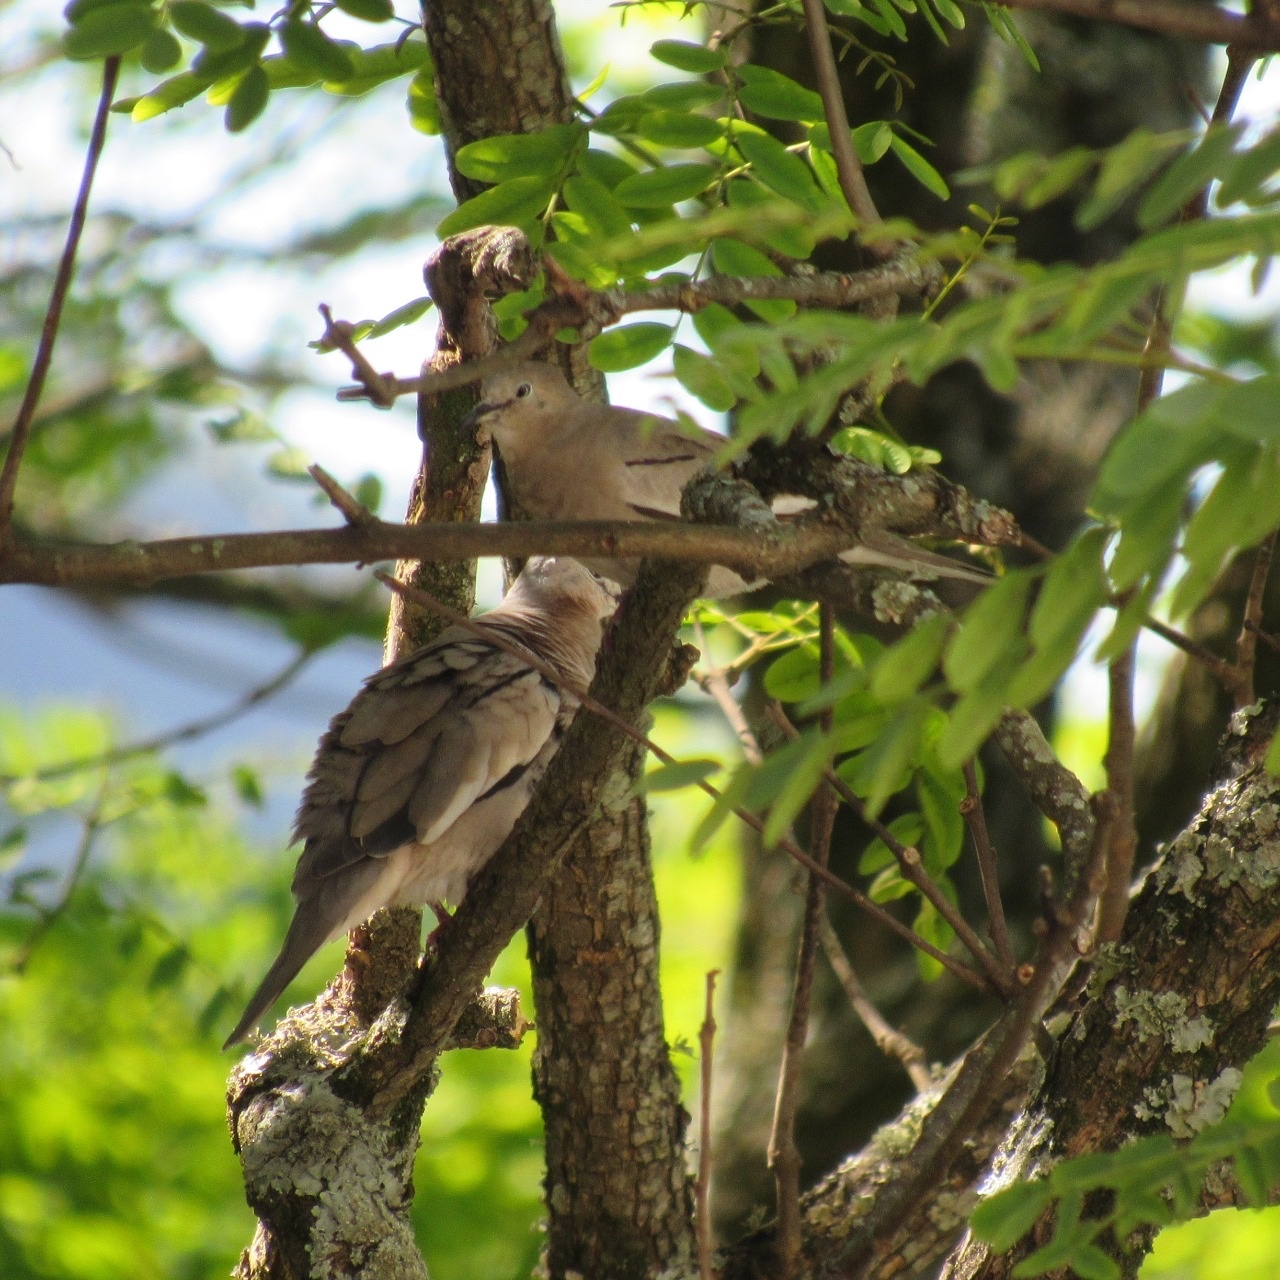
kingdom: Animalia
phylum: Chordata
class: Aves
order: Columbiformes
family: Columbidae
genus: Columbina
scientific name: Columbina picui
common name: Picui ground dove
